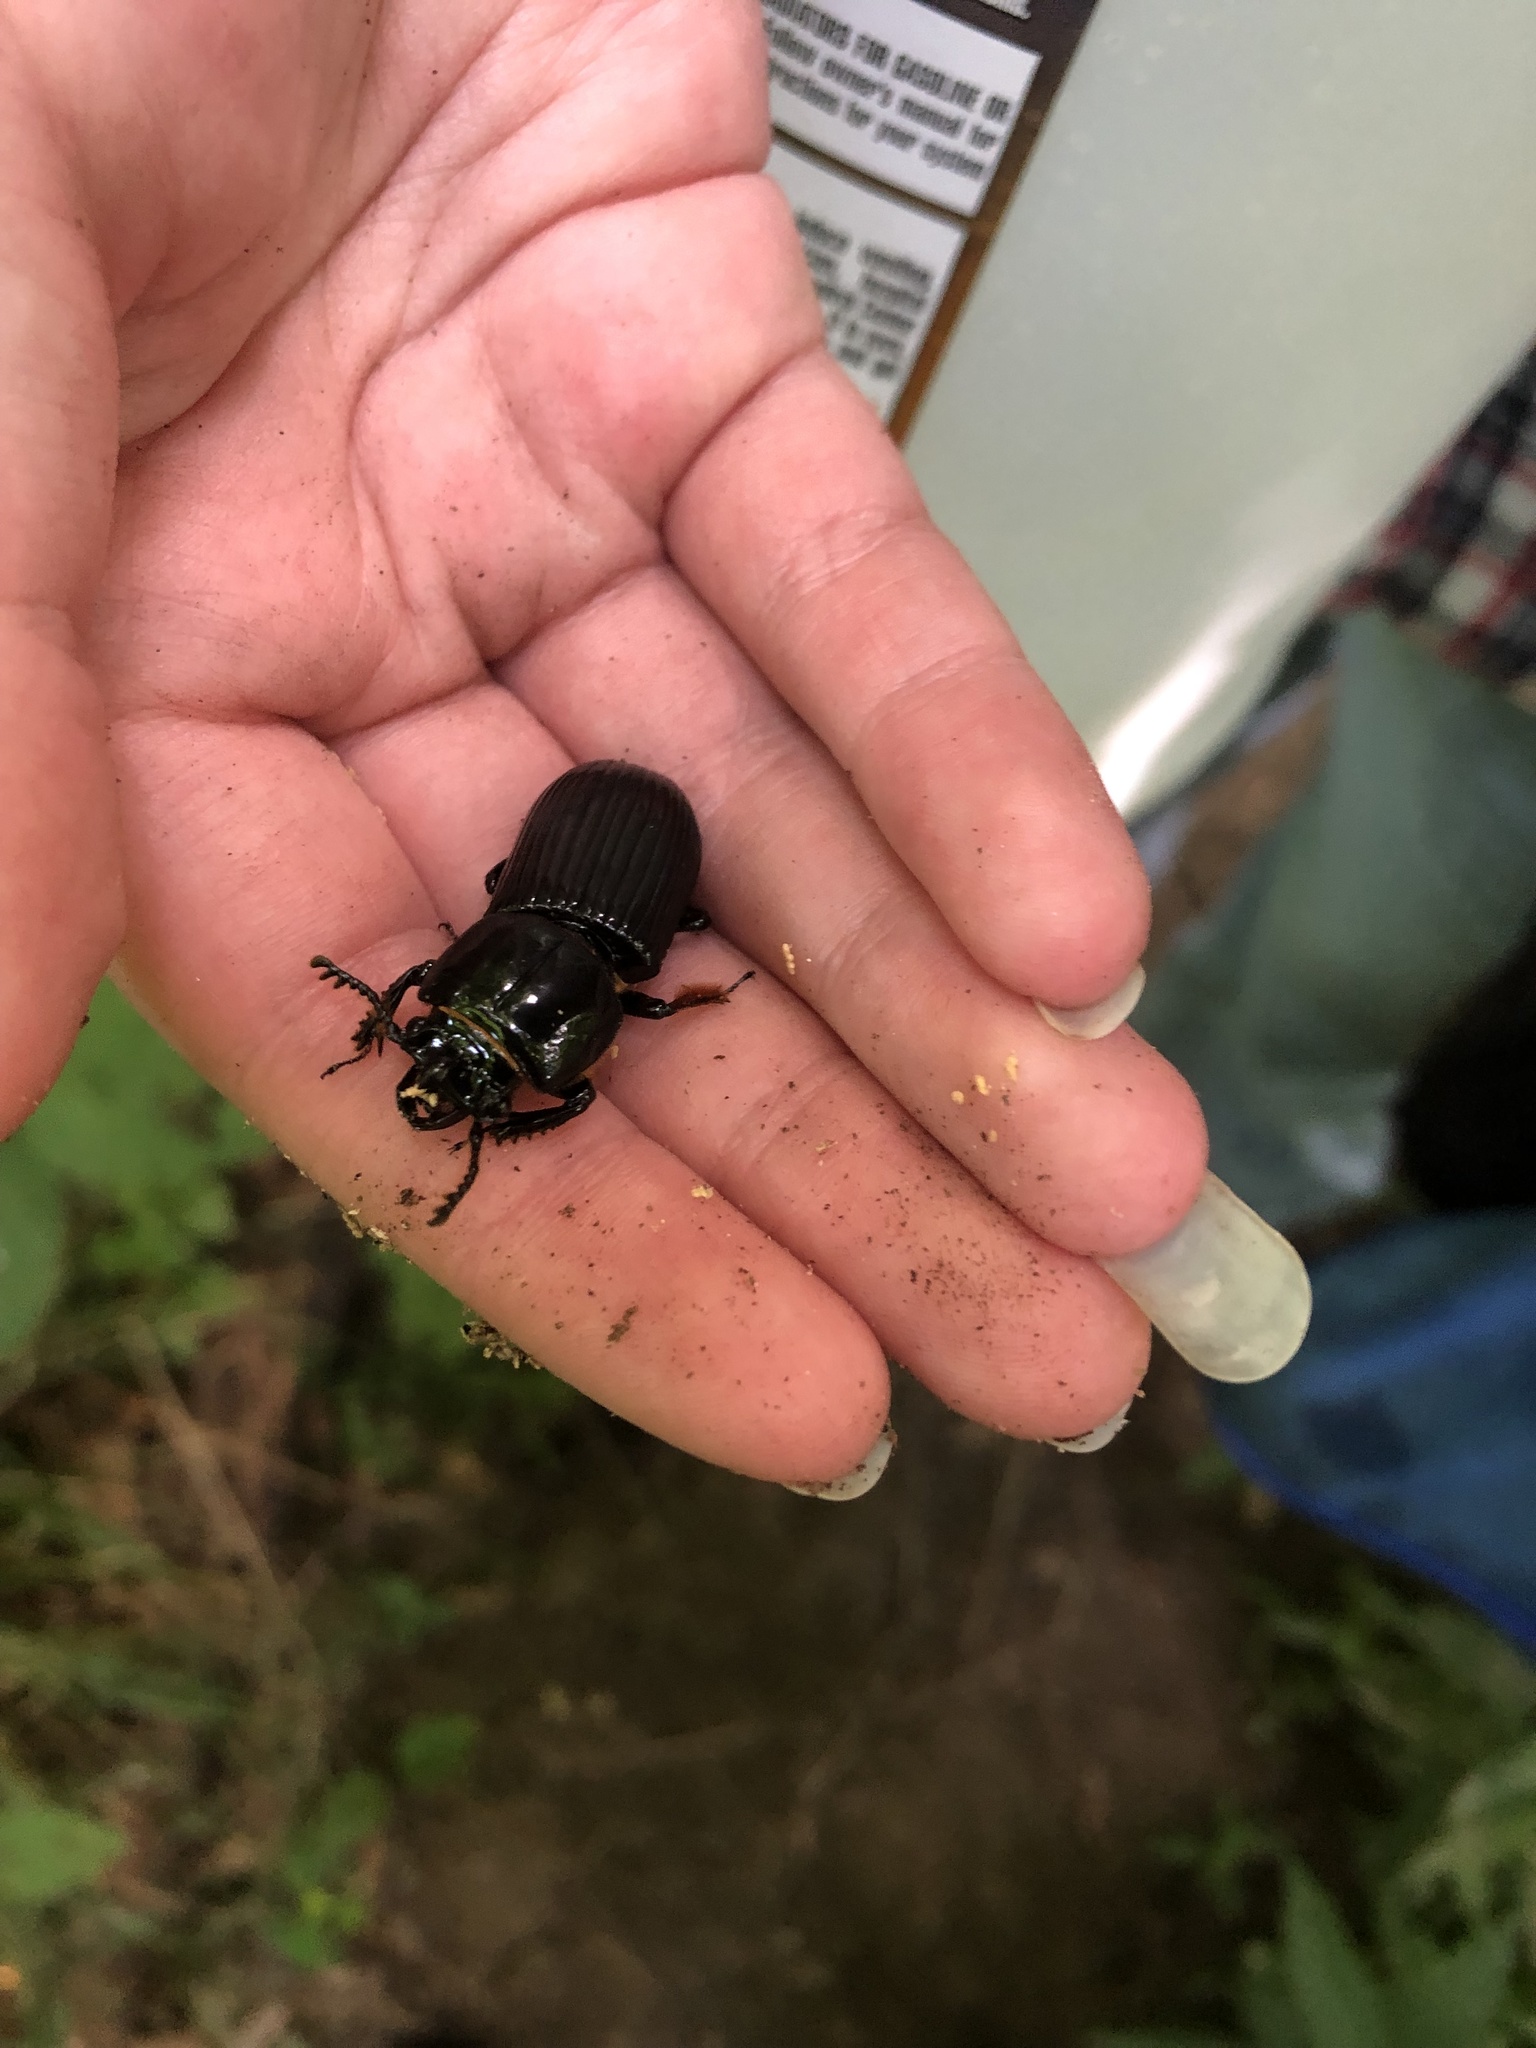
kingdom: Animalia
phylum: Arthropoda
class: Insecta
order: Coleoptera
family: Passalidae
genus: Odontotaenius
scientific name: Odontotaenius disjunctus
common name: Patent leather beetle
